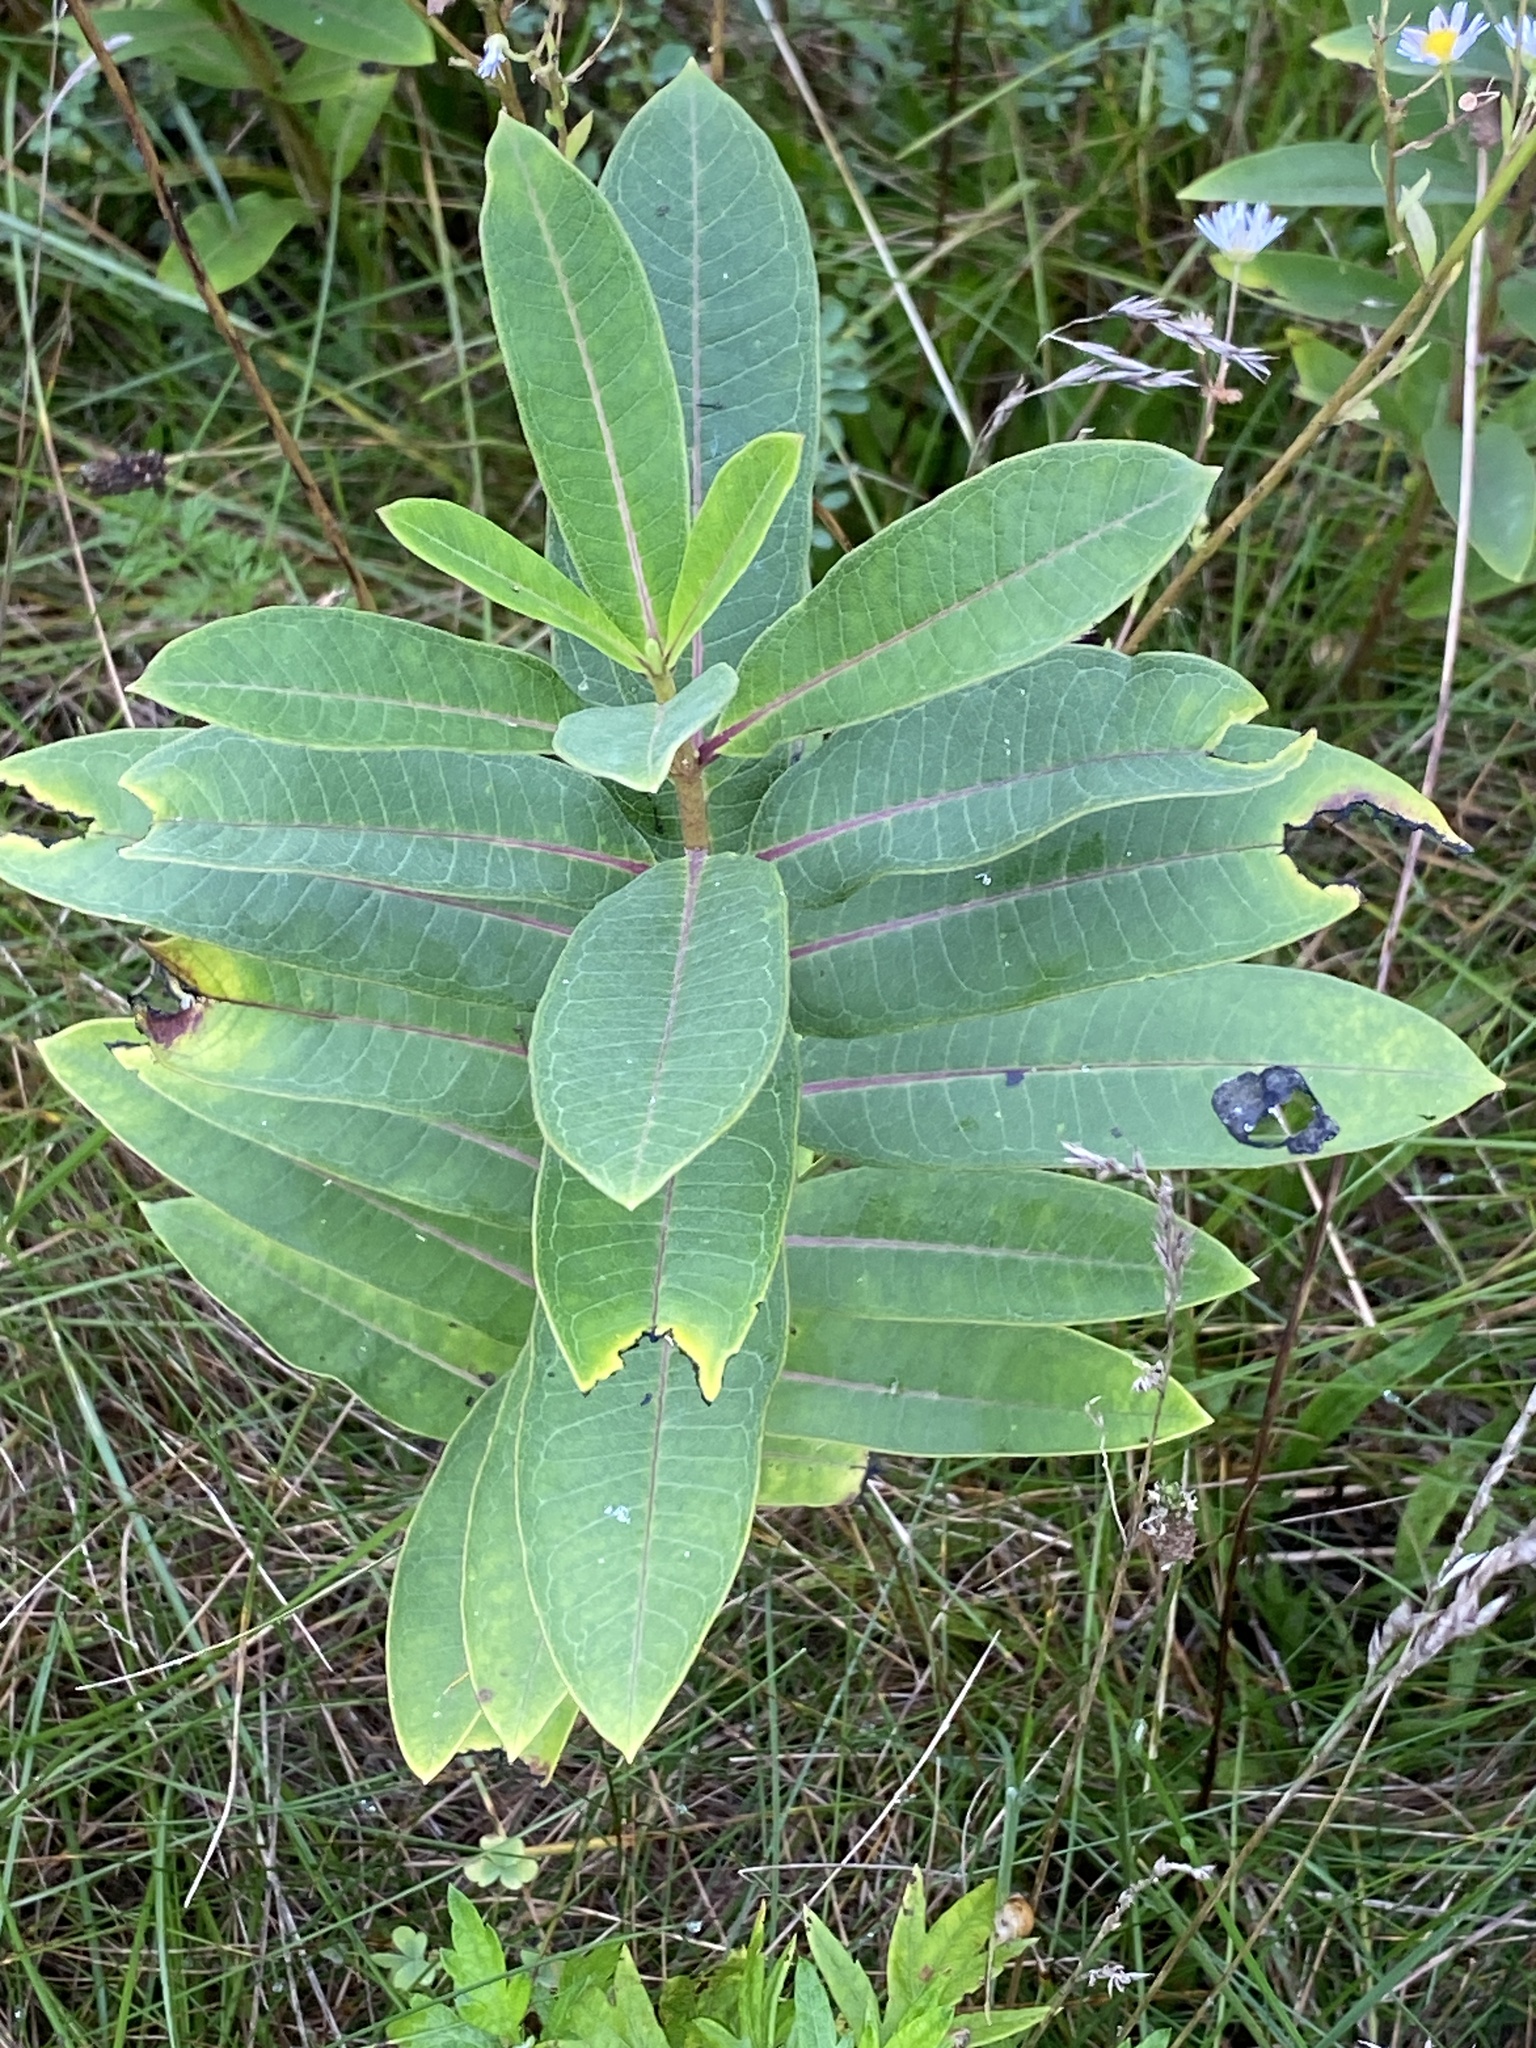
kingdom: Plantae
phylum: Tracheophyta
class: Magnoliopsida
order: Gentianales
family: Apocynaceae
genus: Asclepias
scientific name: Asclepias syriaca
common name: Common milkweed
